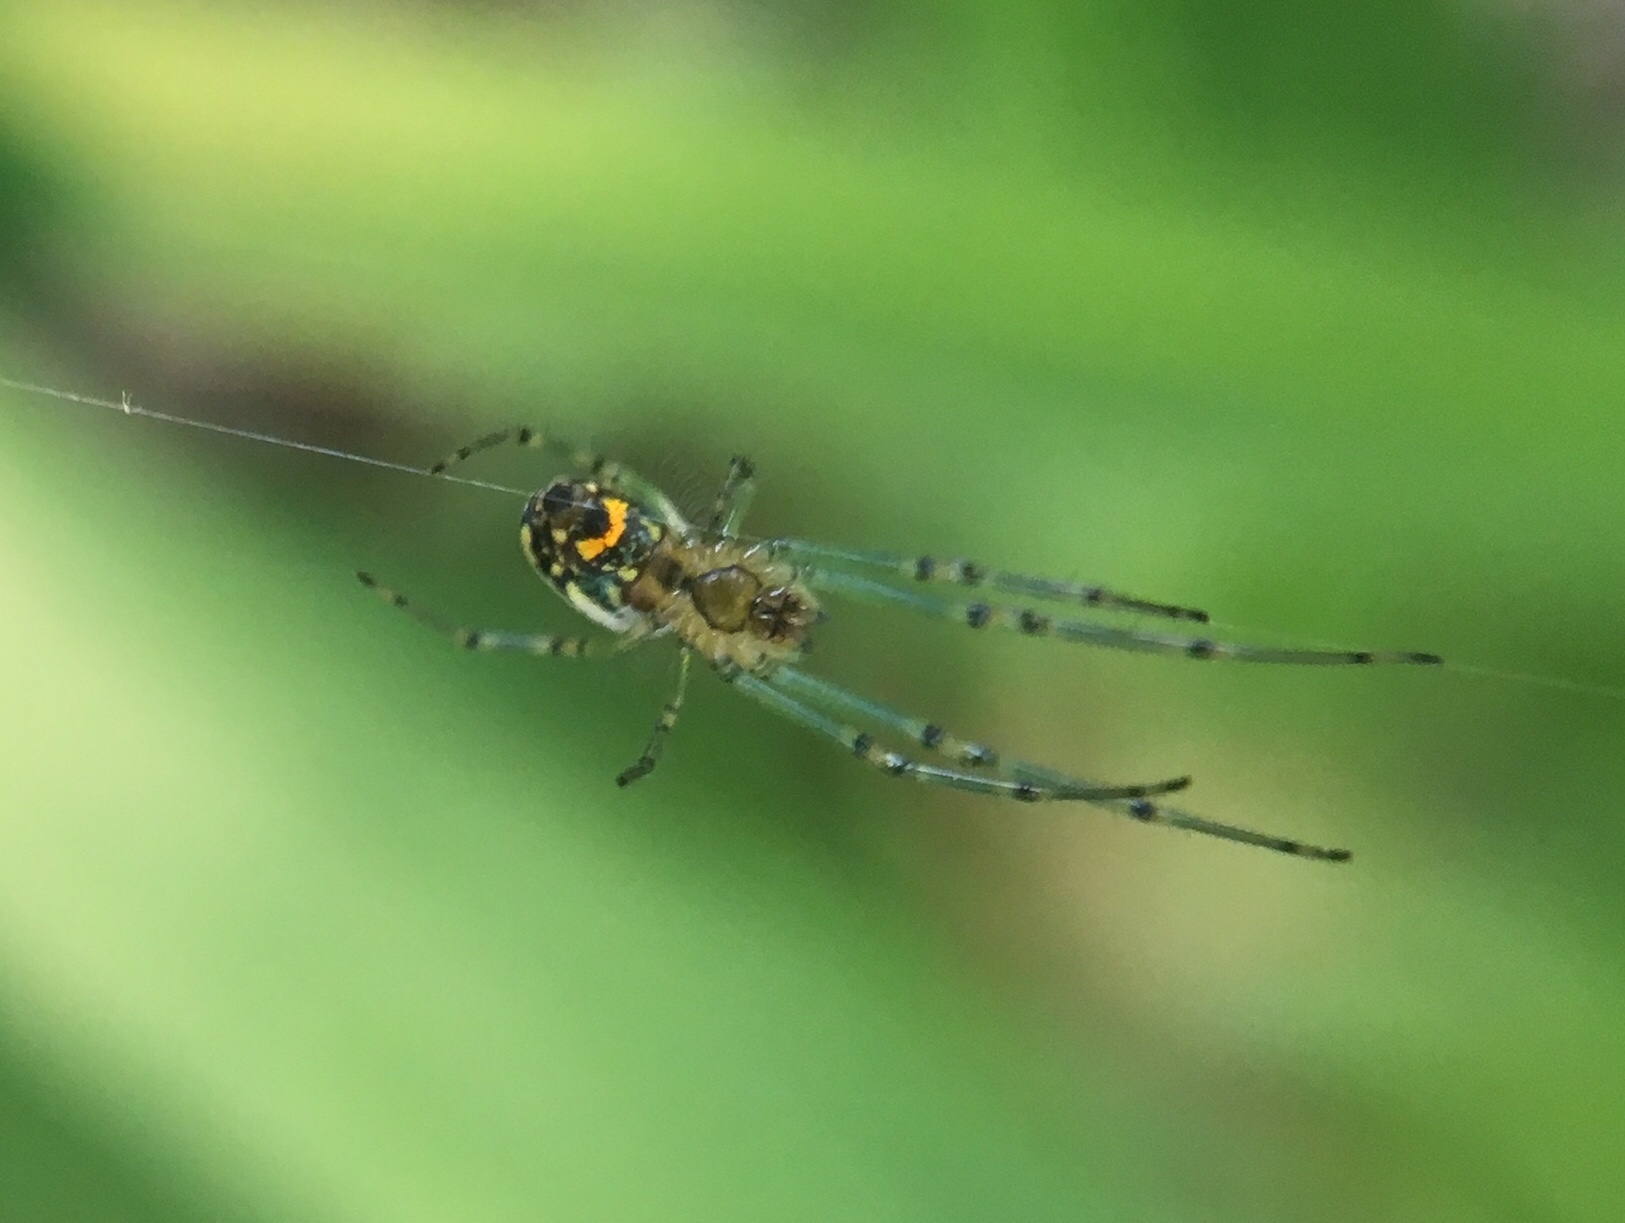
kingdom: Animalia
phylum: Arthropoda
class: Arachnida
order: Araneae
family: Tetragnathidae
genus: Leucauge
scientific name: Leucauge venusta
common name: Longjawed orb weavers
